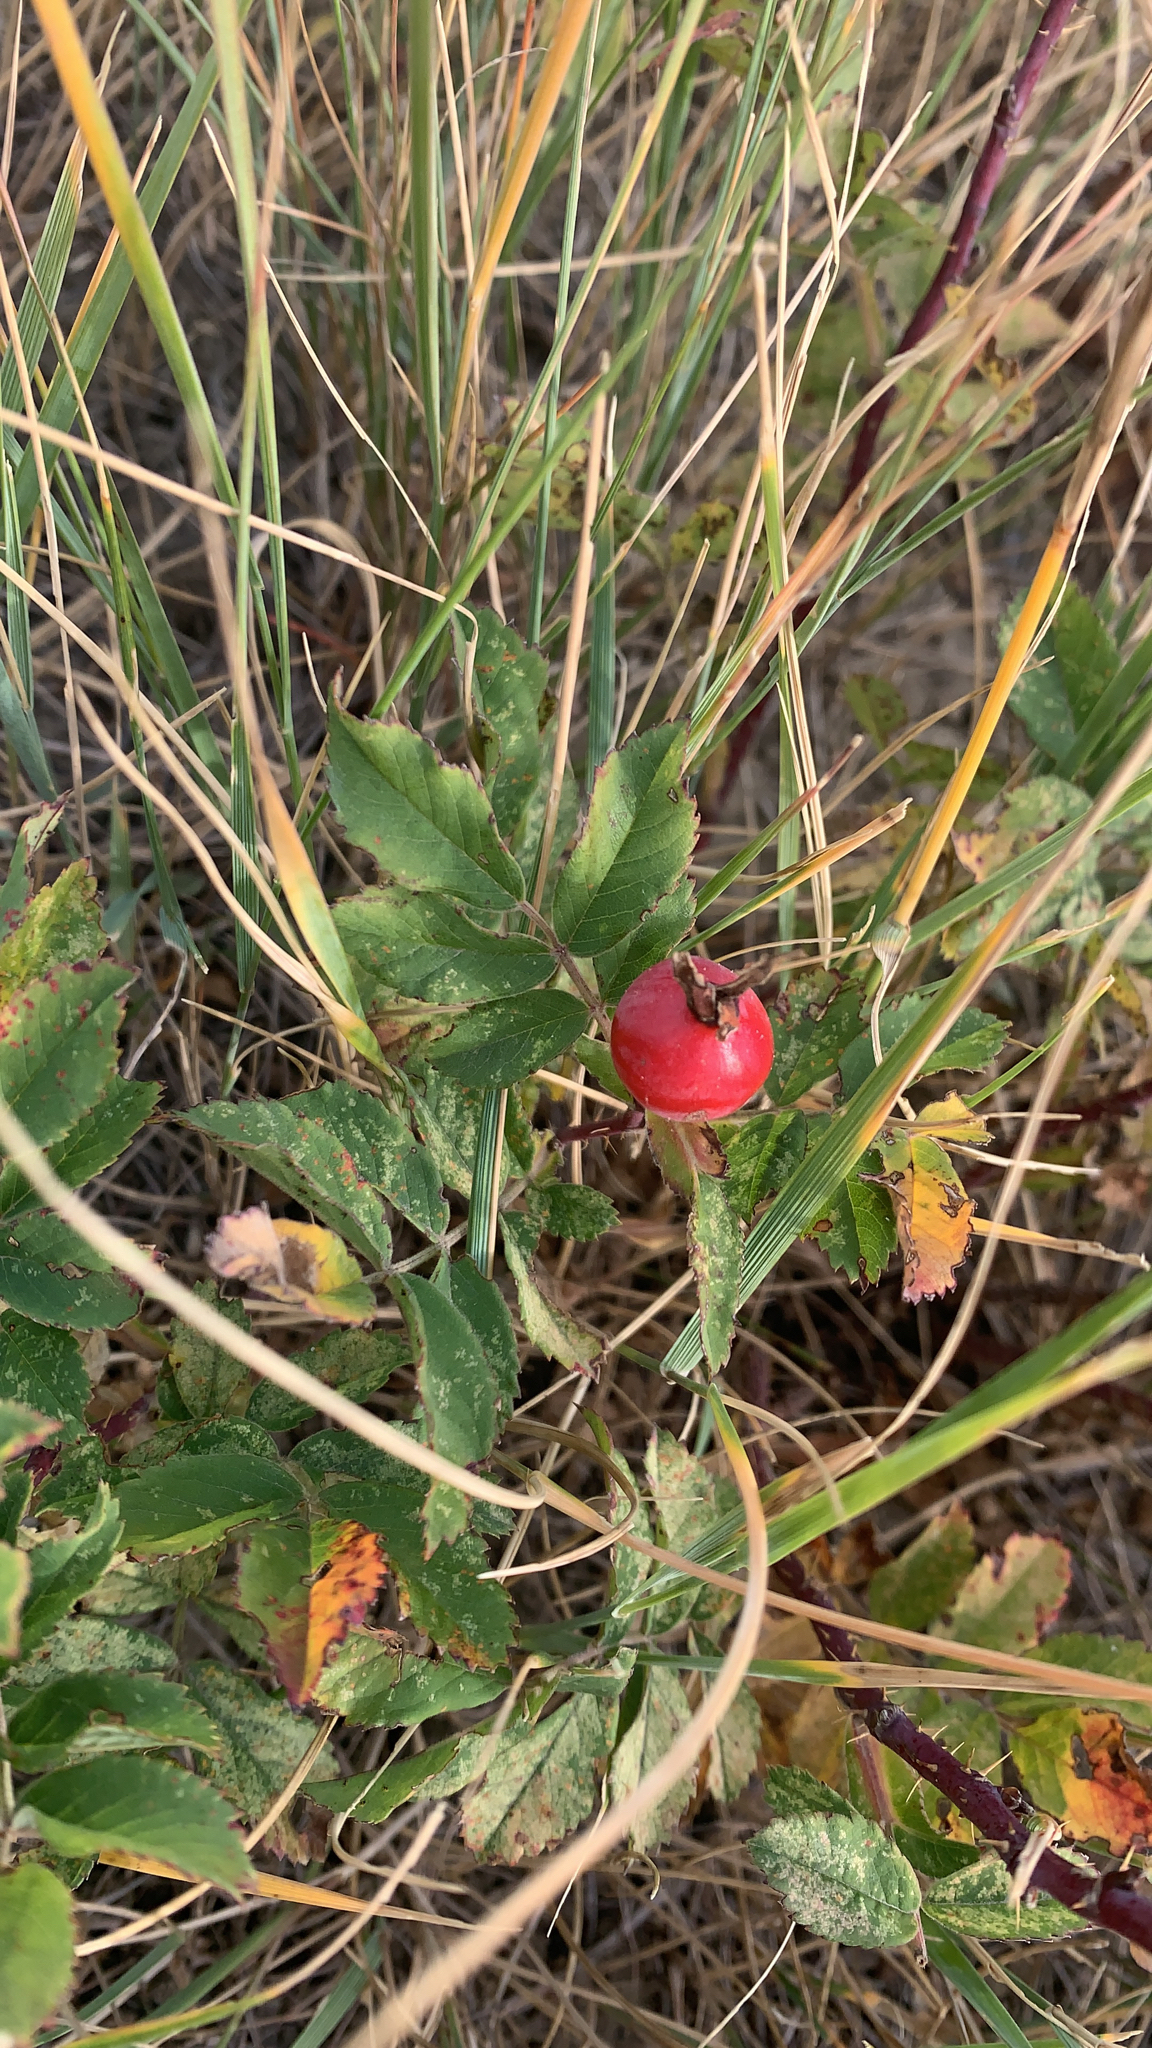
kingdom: Plantae
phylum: Tracheophyta
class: Magnoliopsida
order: Rosales
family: Rosaceae
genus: Rosa
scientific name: Rosa arkansana
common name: Prairie rose
